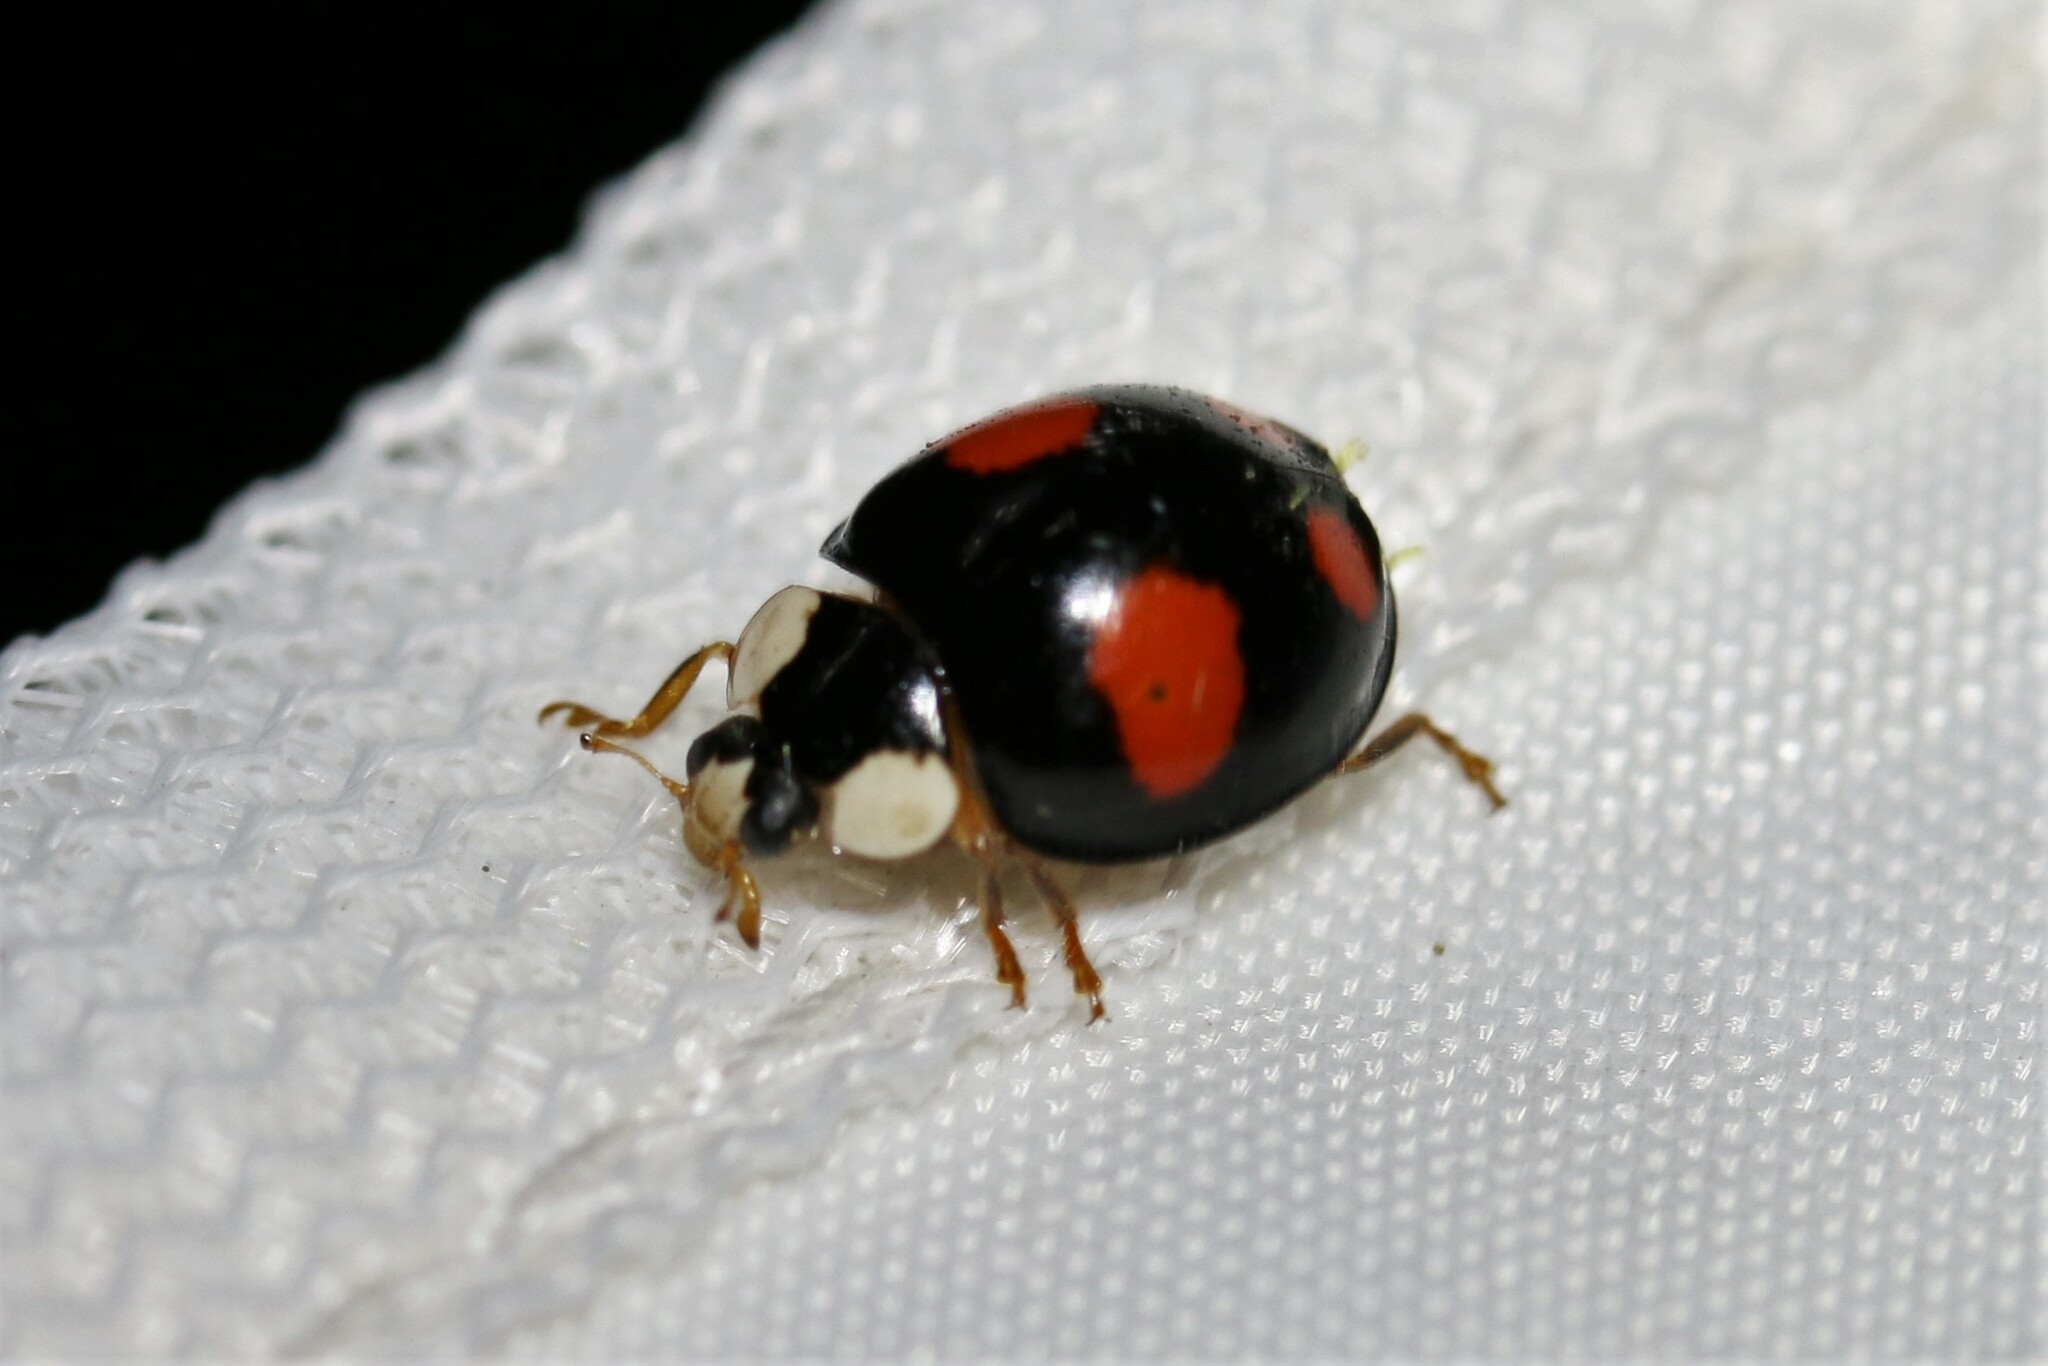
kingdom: Animalia
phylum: Arthropoda
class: Insecta
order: Coleoptera
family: Coccinellidae
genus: Harmonia
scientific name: Harmonia axyridis
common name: Harlequin ladybird
